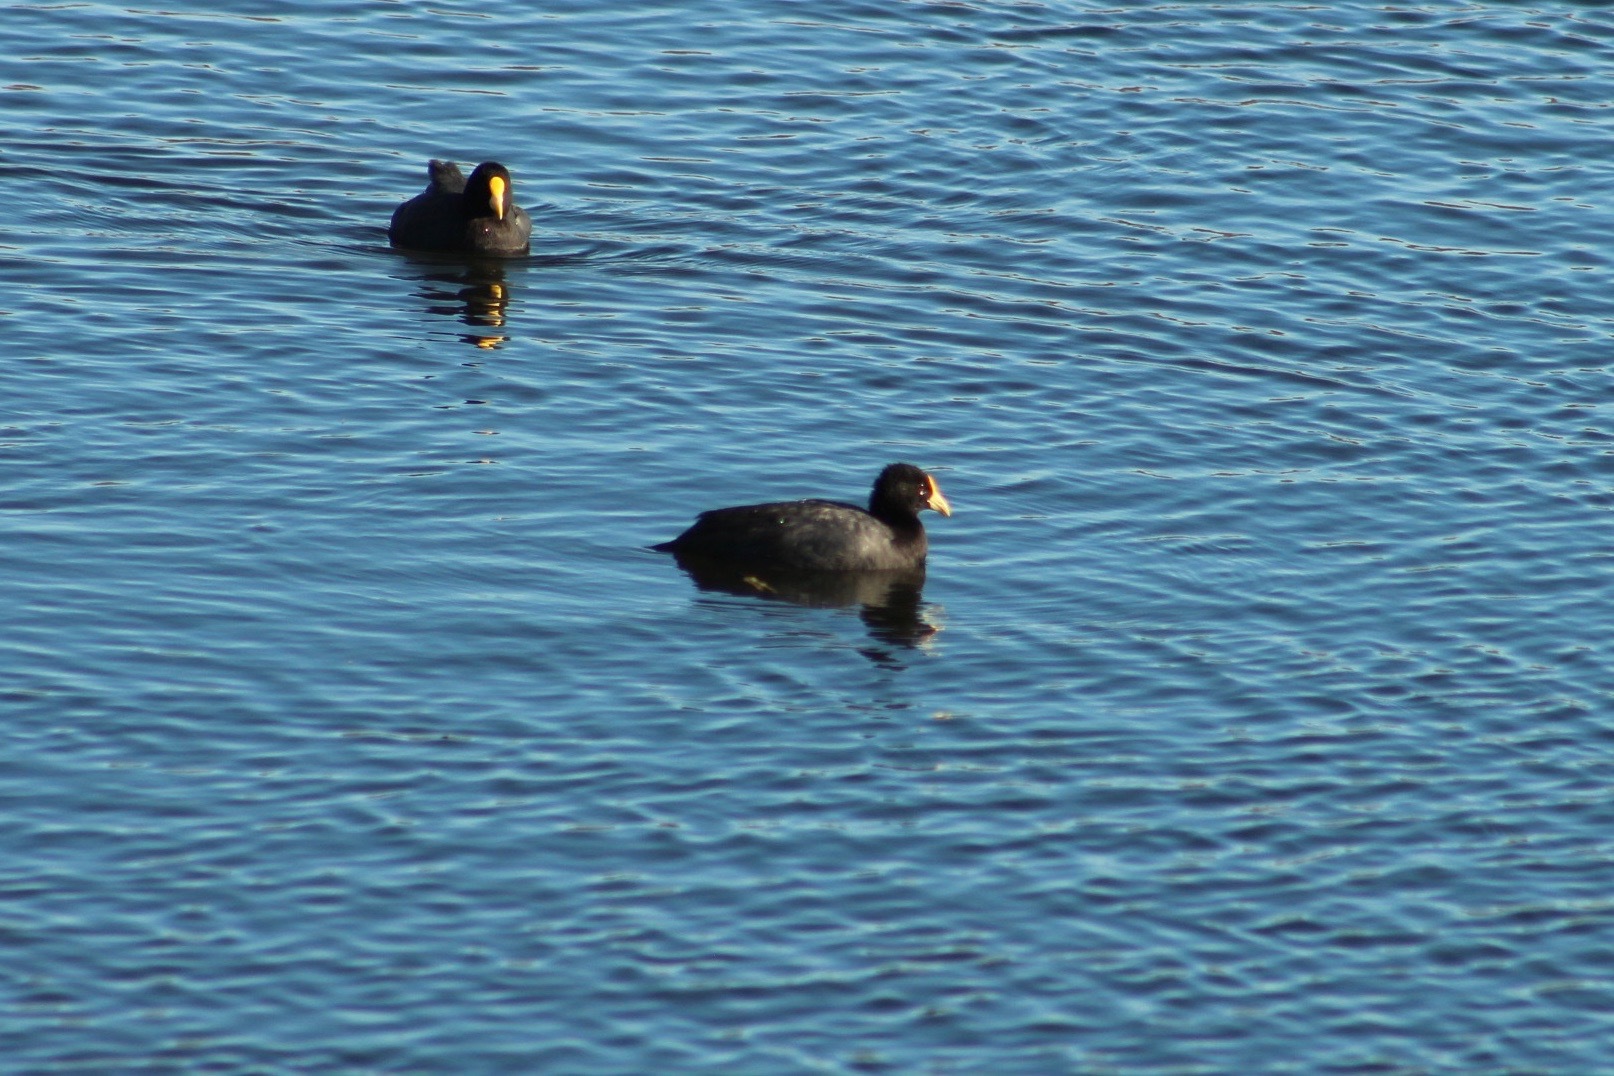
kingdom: Animalia
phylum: Chordata
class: Aves
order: Gruiformes
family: Rallidae
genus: Fulica
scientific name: Fulica leucoptera
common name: White-winged coot
